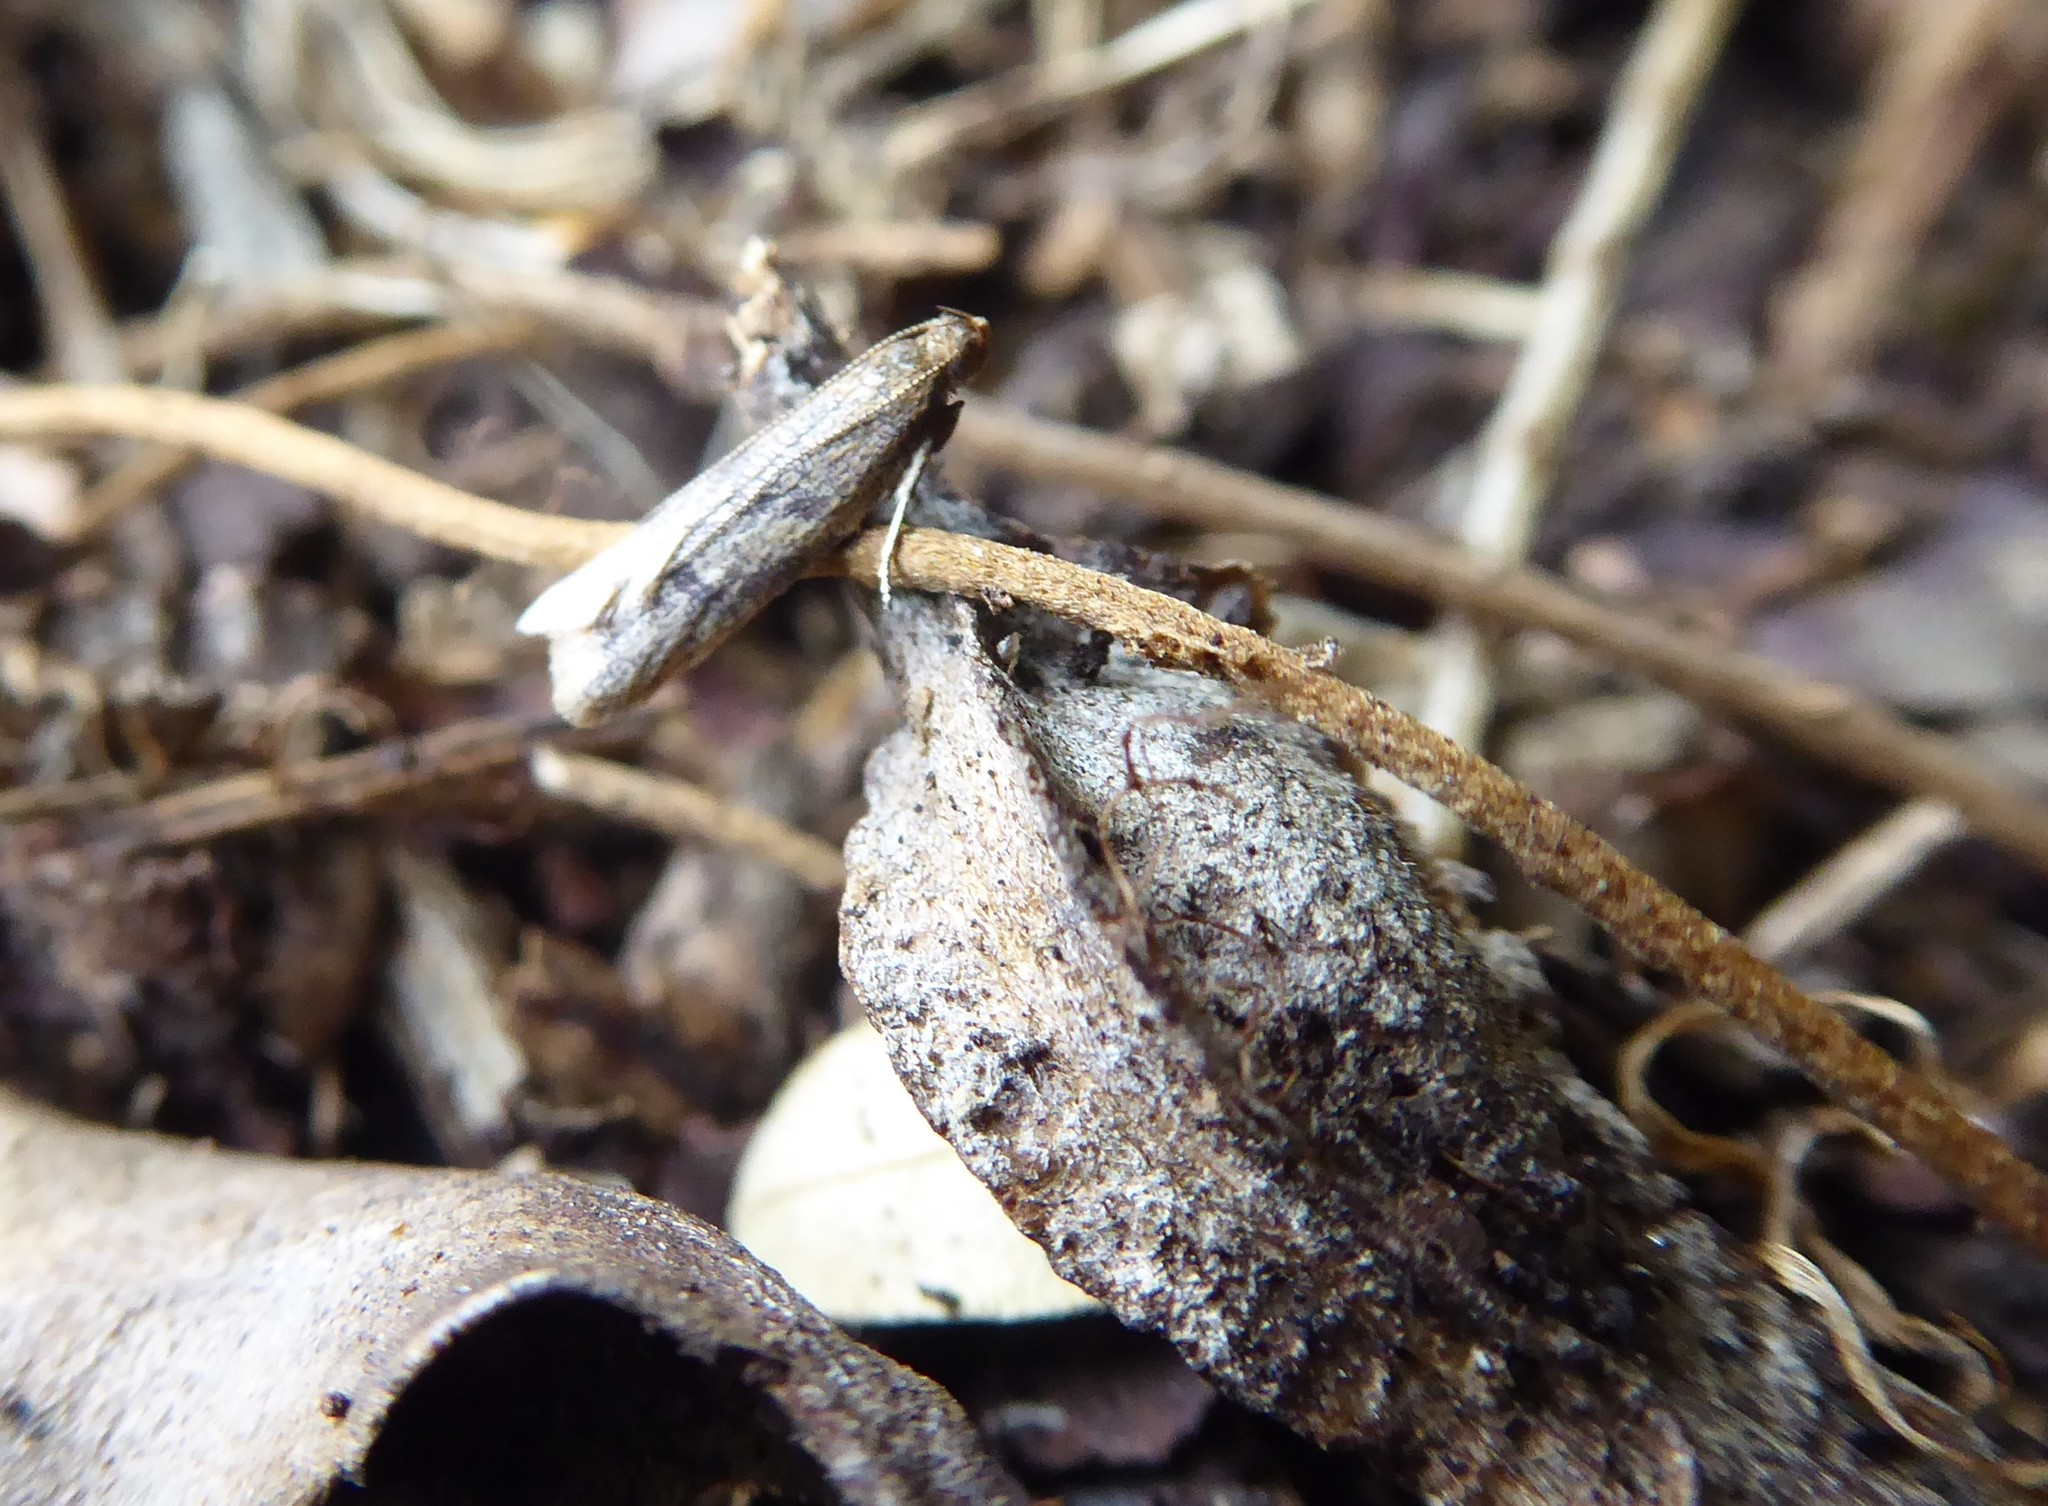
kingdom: Animalia
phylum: Arthropoda
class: Insecta
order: Lepidoptera
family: Oecophoridae
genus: Gymnobathra
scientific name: Gymnobathra tholodella
